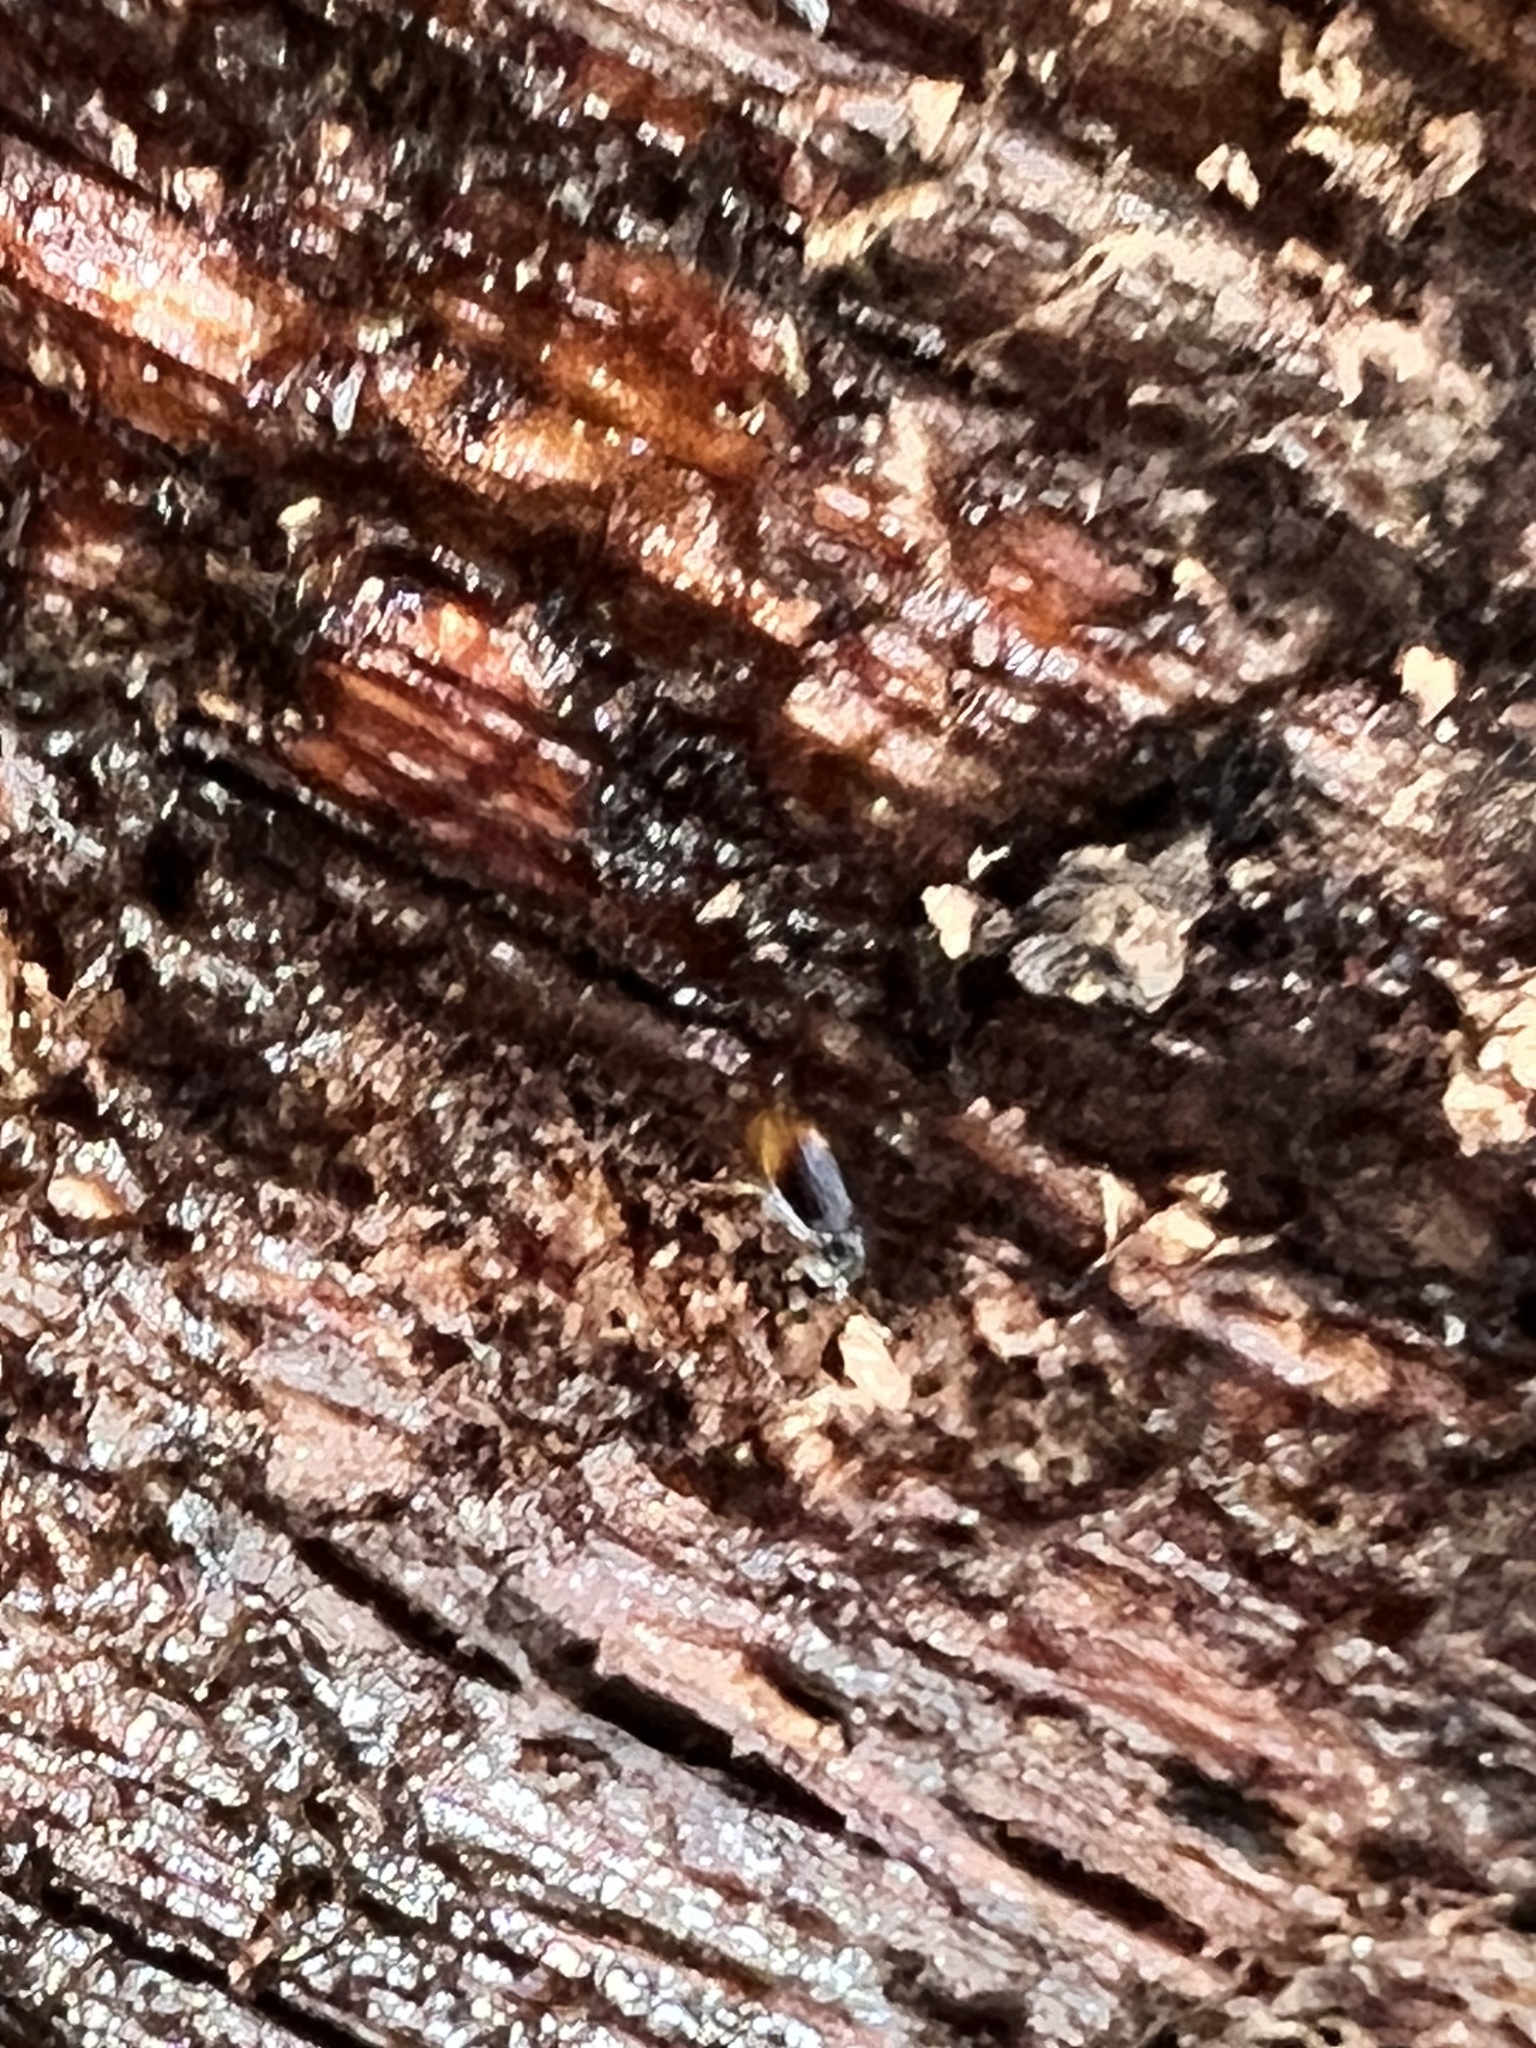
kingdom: Animalia
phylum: Arthropoda
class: Insecta
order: Coleoptera
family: Carabidae
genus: Mioptachys
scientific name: Mioptachys flavicauda
